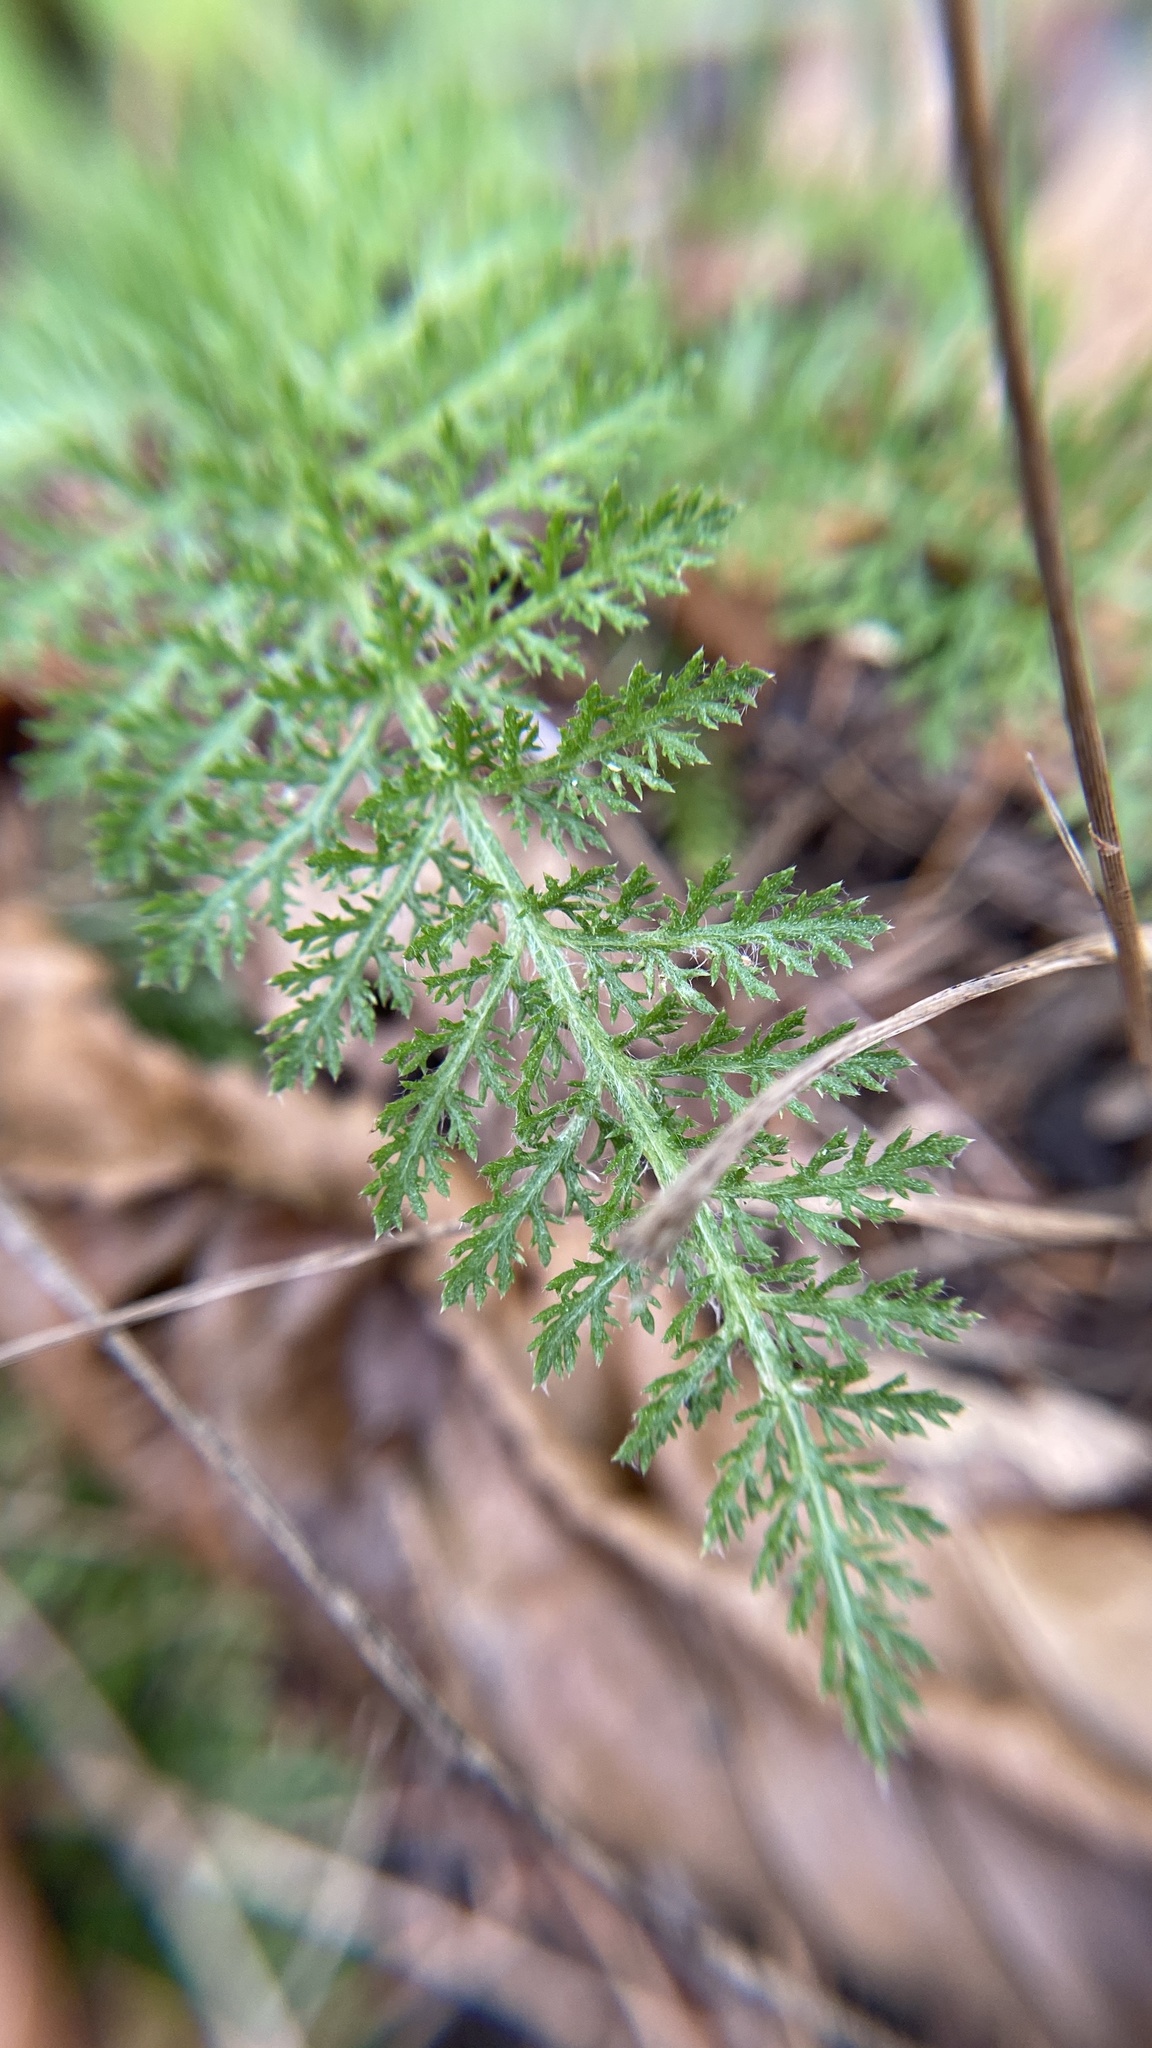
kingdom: Plantae
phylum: Tracheophyta
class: Magnoliopsida
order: Asterales
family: Asteraceae
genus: Achillea
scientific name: Achillea millefolium
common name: Yarrow
